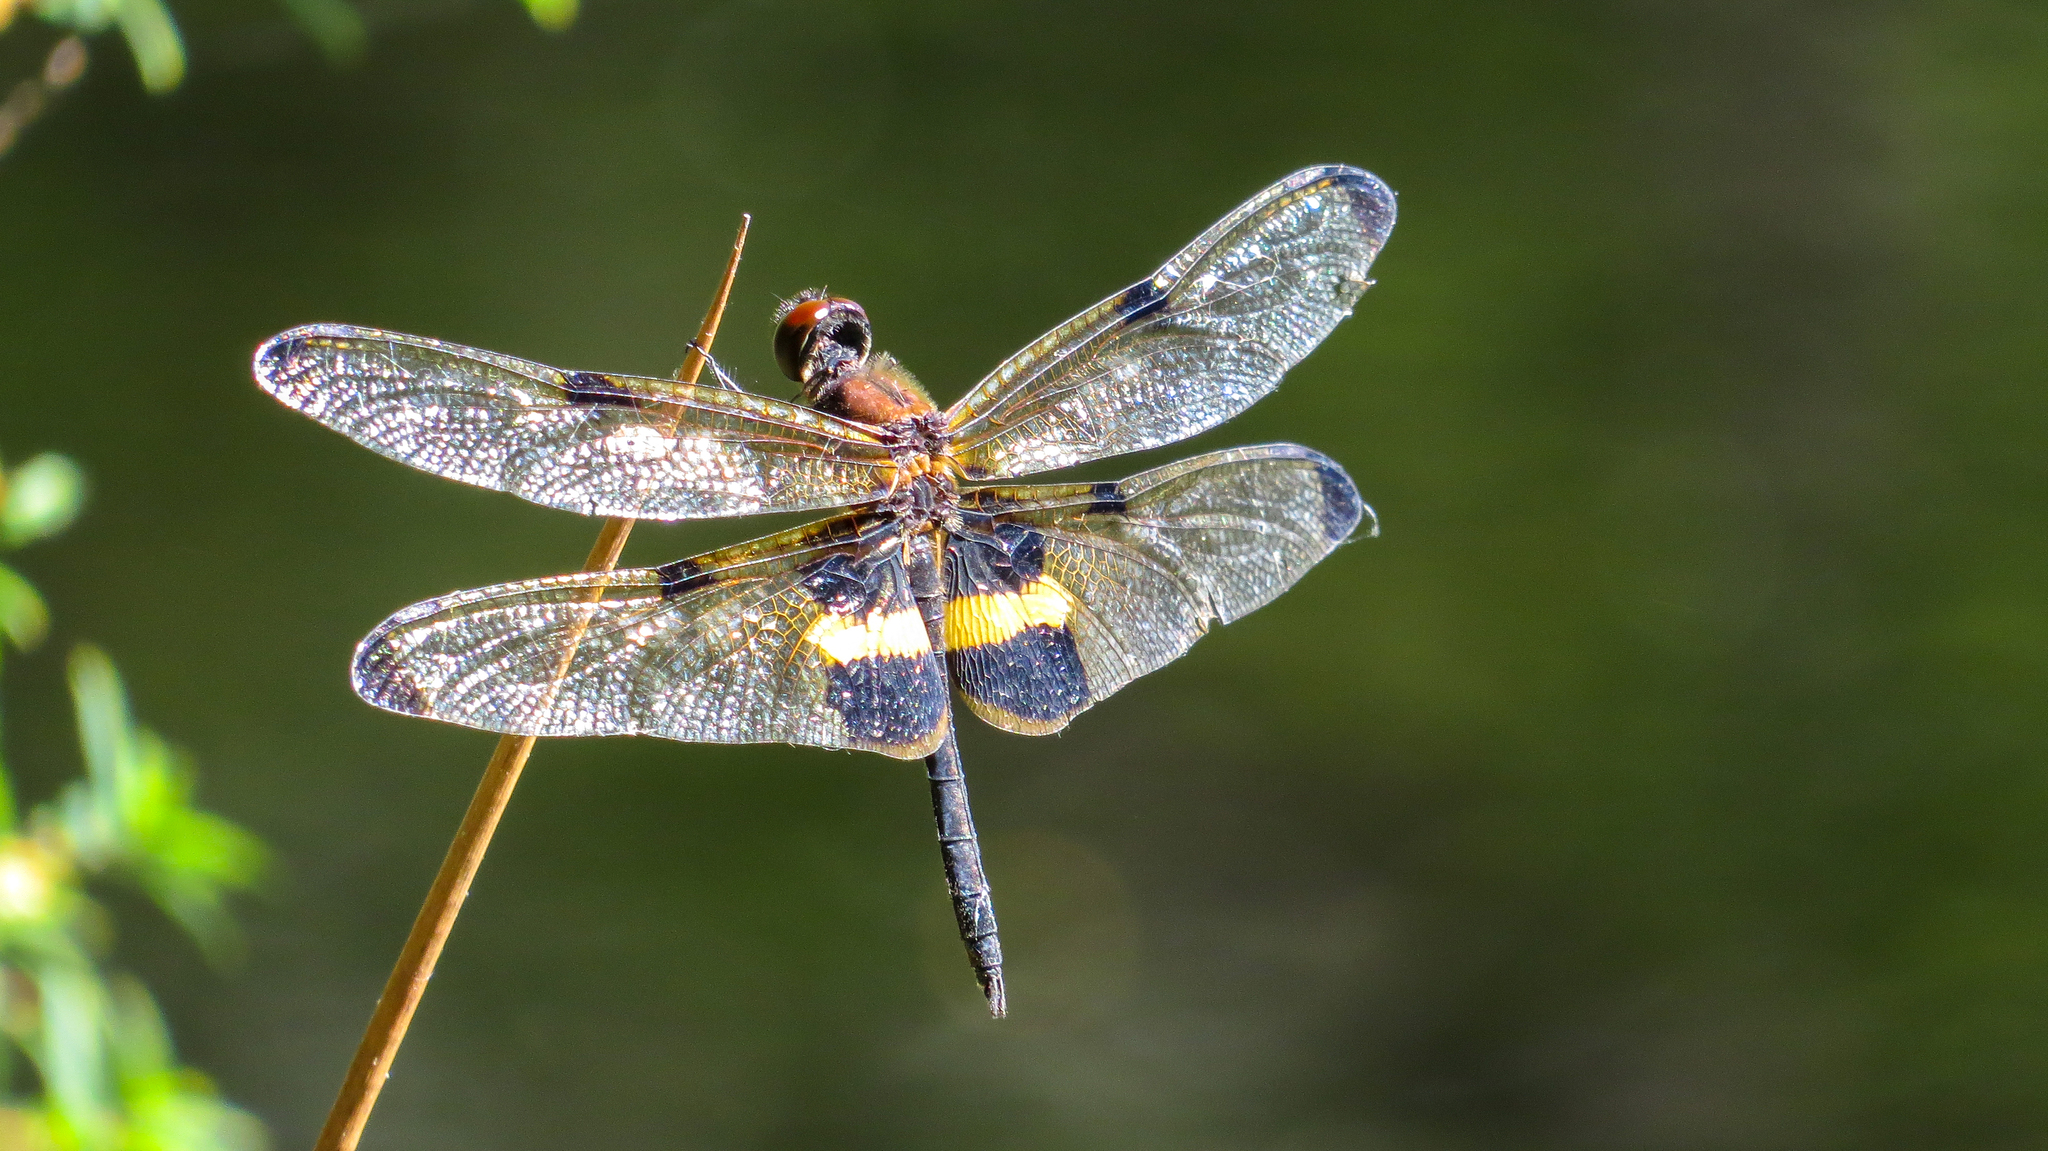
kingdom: Animalia
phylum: Arthropoda
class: Insecta
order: Odonata
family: Libellulidae
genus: Rhyothemis
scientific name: Rhyothemis phyllis
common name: Yellow-barred flutterer
